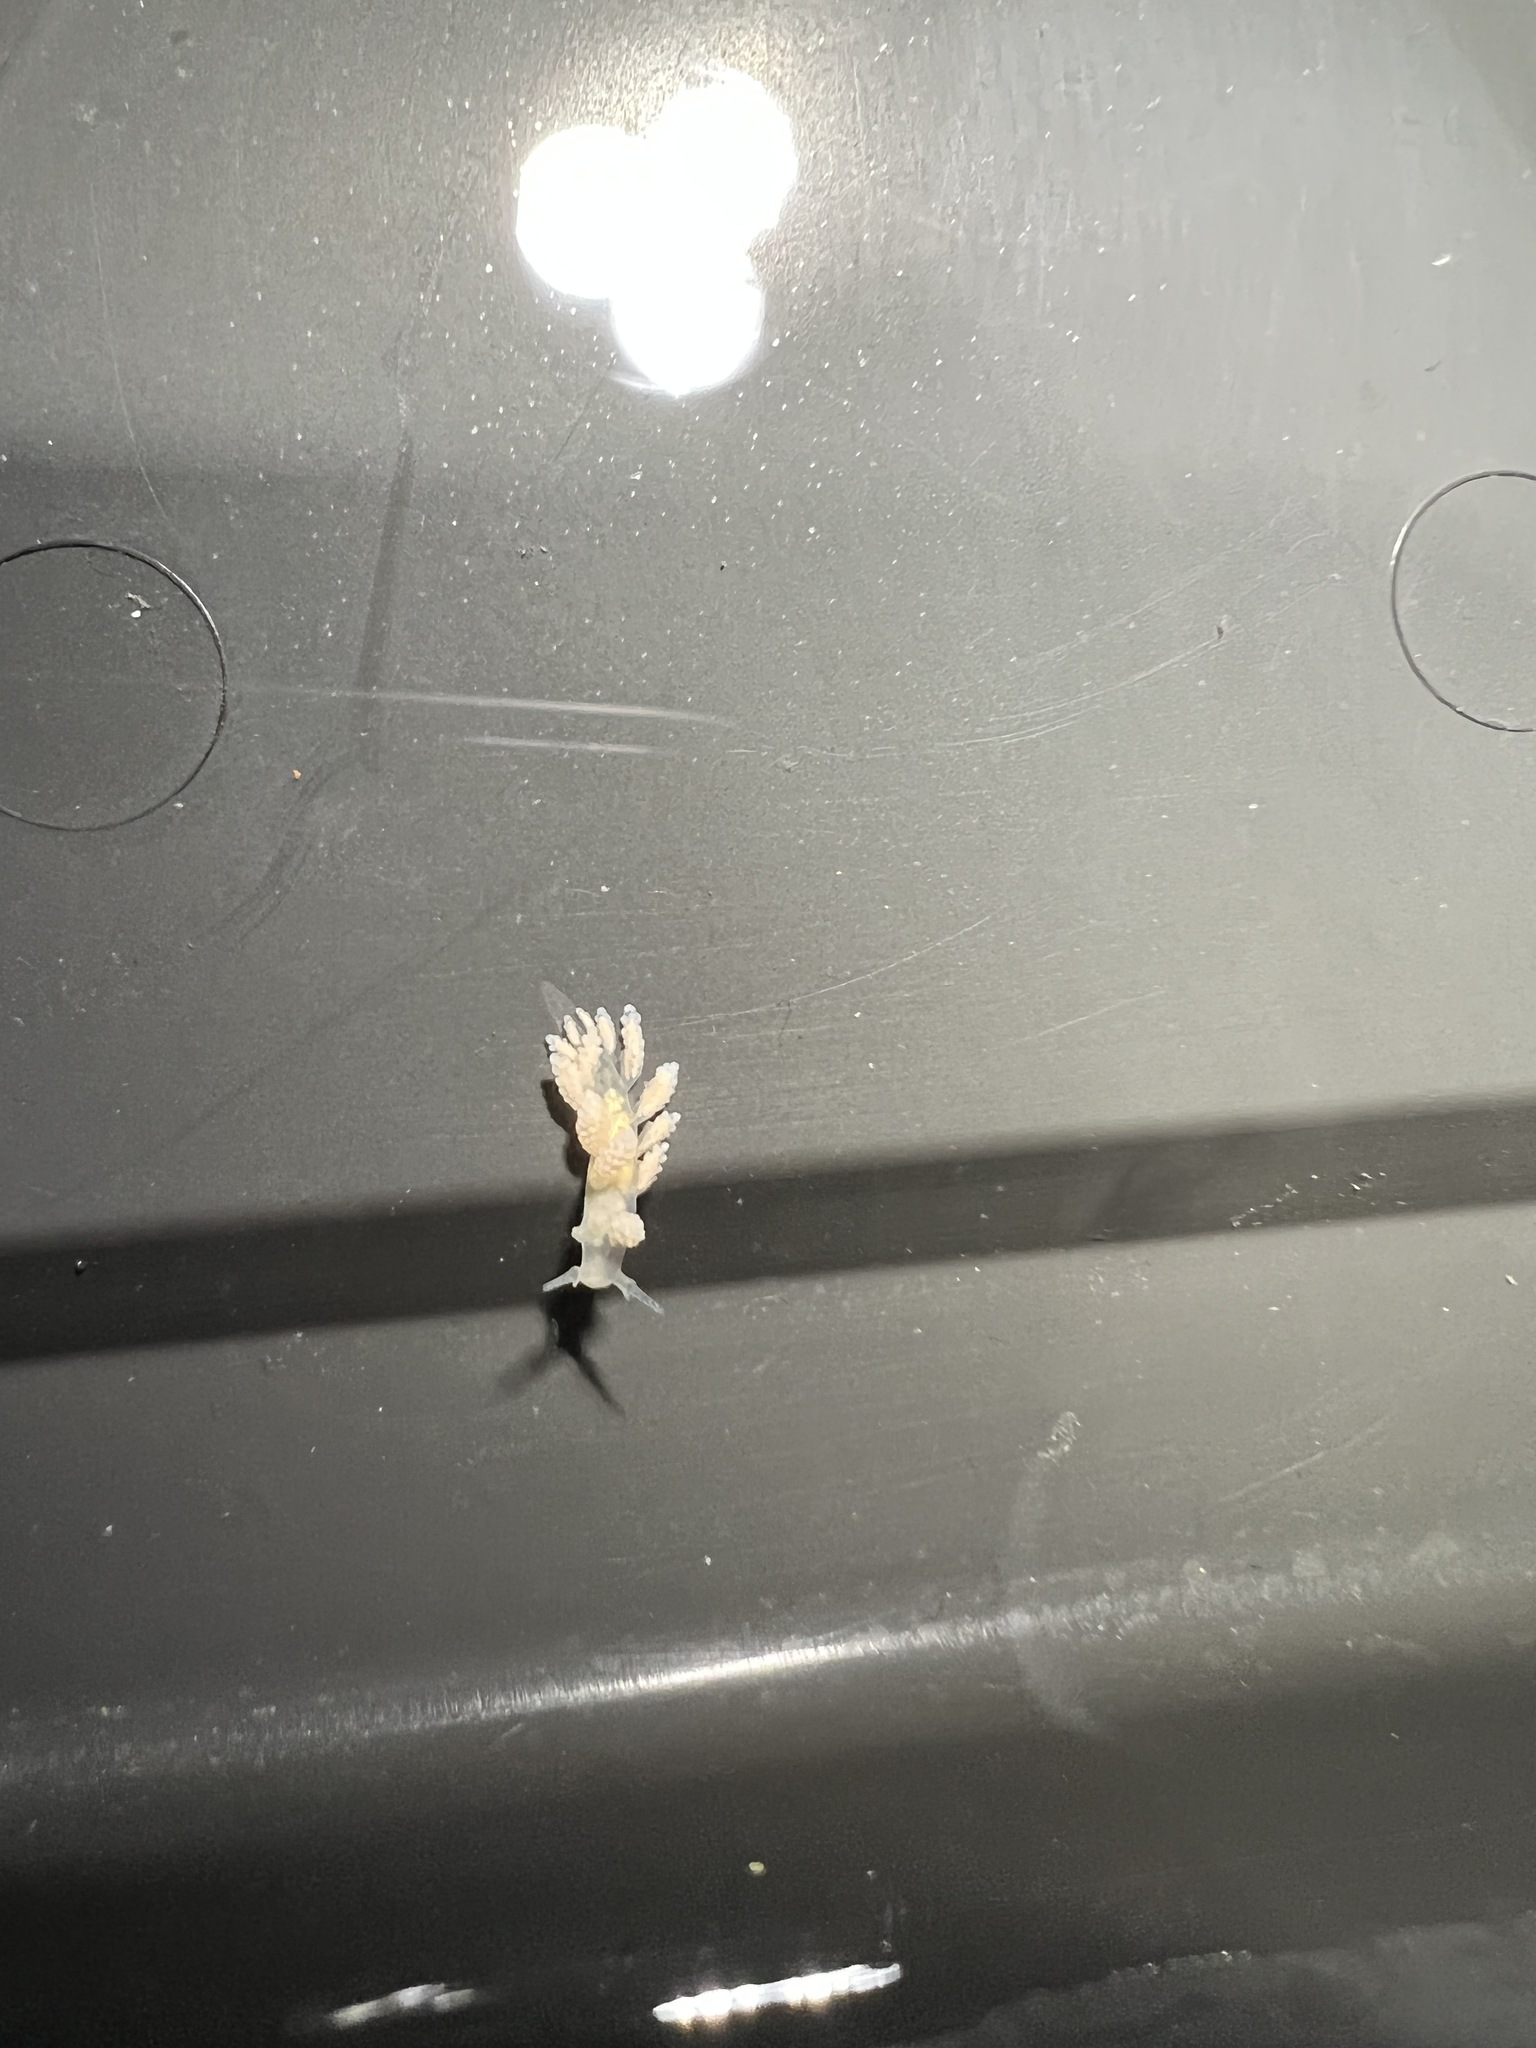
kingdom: Animalia
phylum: Mollusca
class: Gastropoda
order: Nudibranchia
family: Dotidae
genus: Doto
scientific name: Doto amyra
